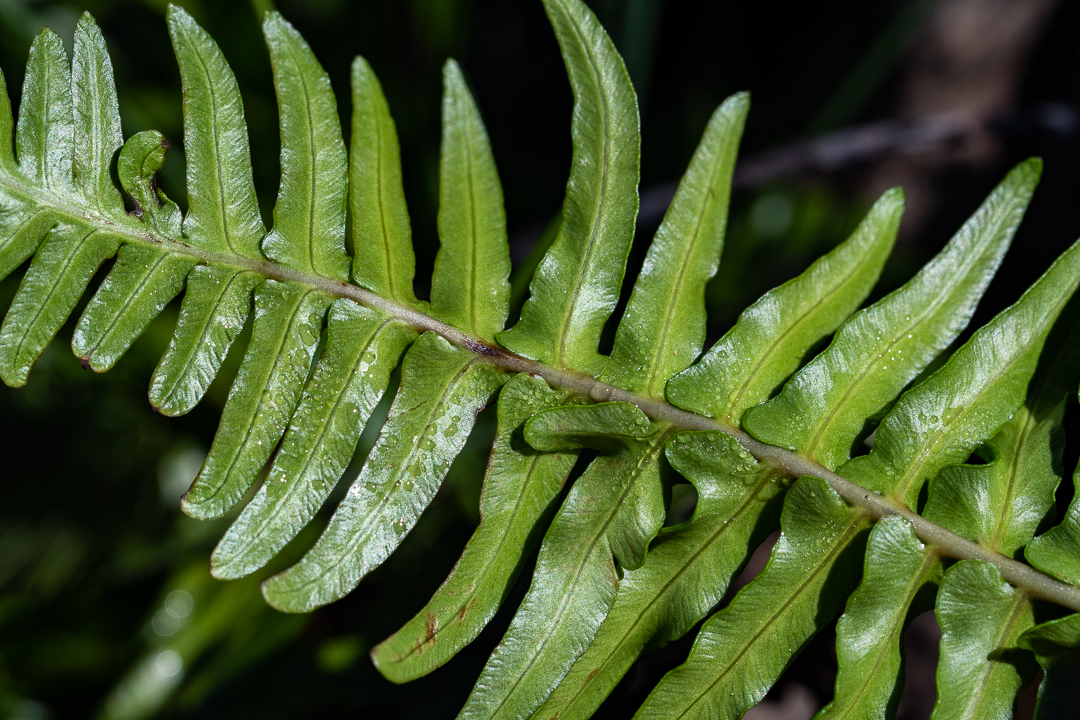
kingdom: Plantae
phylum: Tracheophyta
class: Polypodiopsida
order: Polypodiales
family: Blechnaceae
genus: Blechnum
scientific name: Blechnum punctulatum
